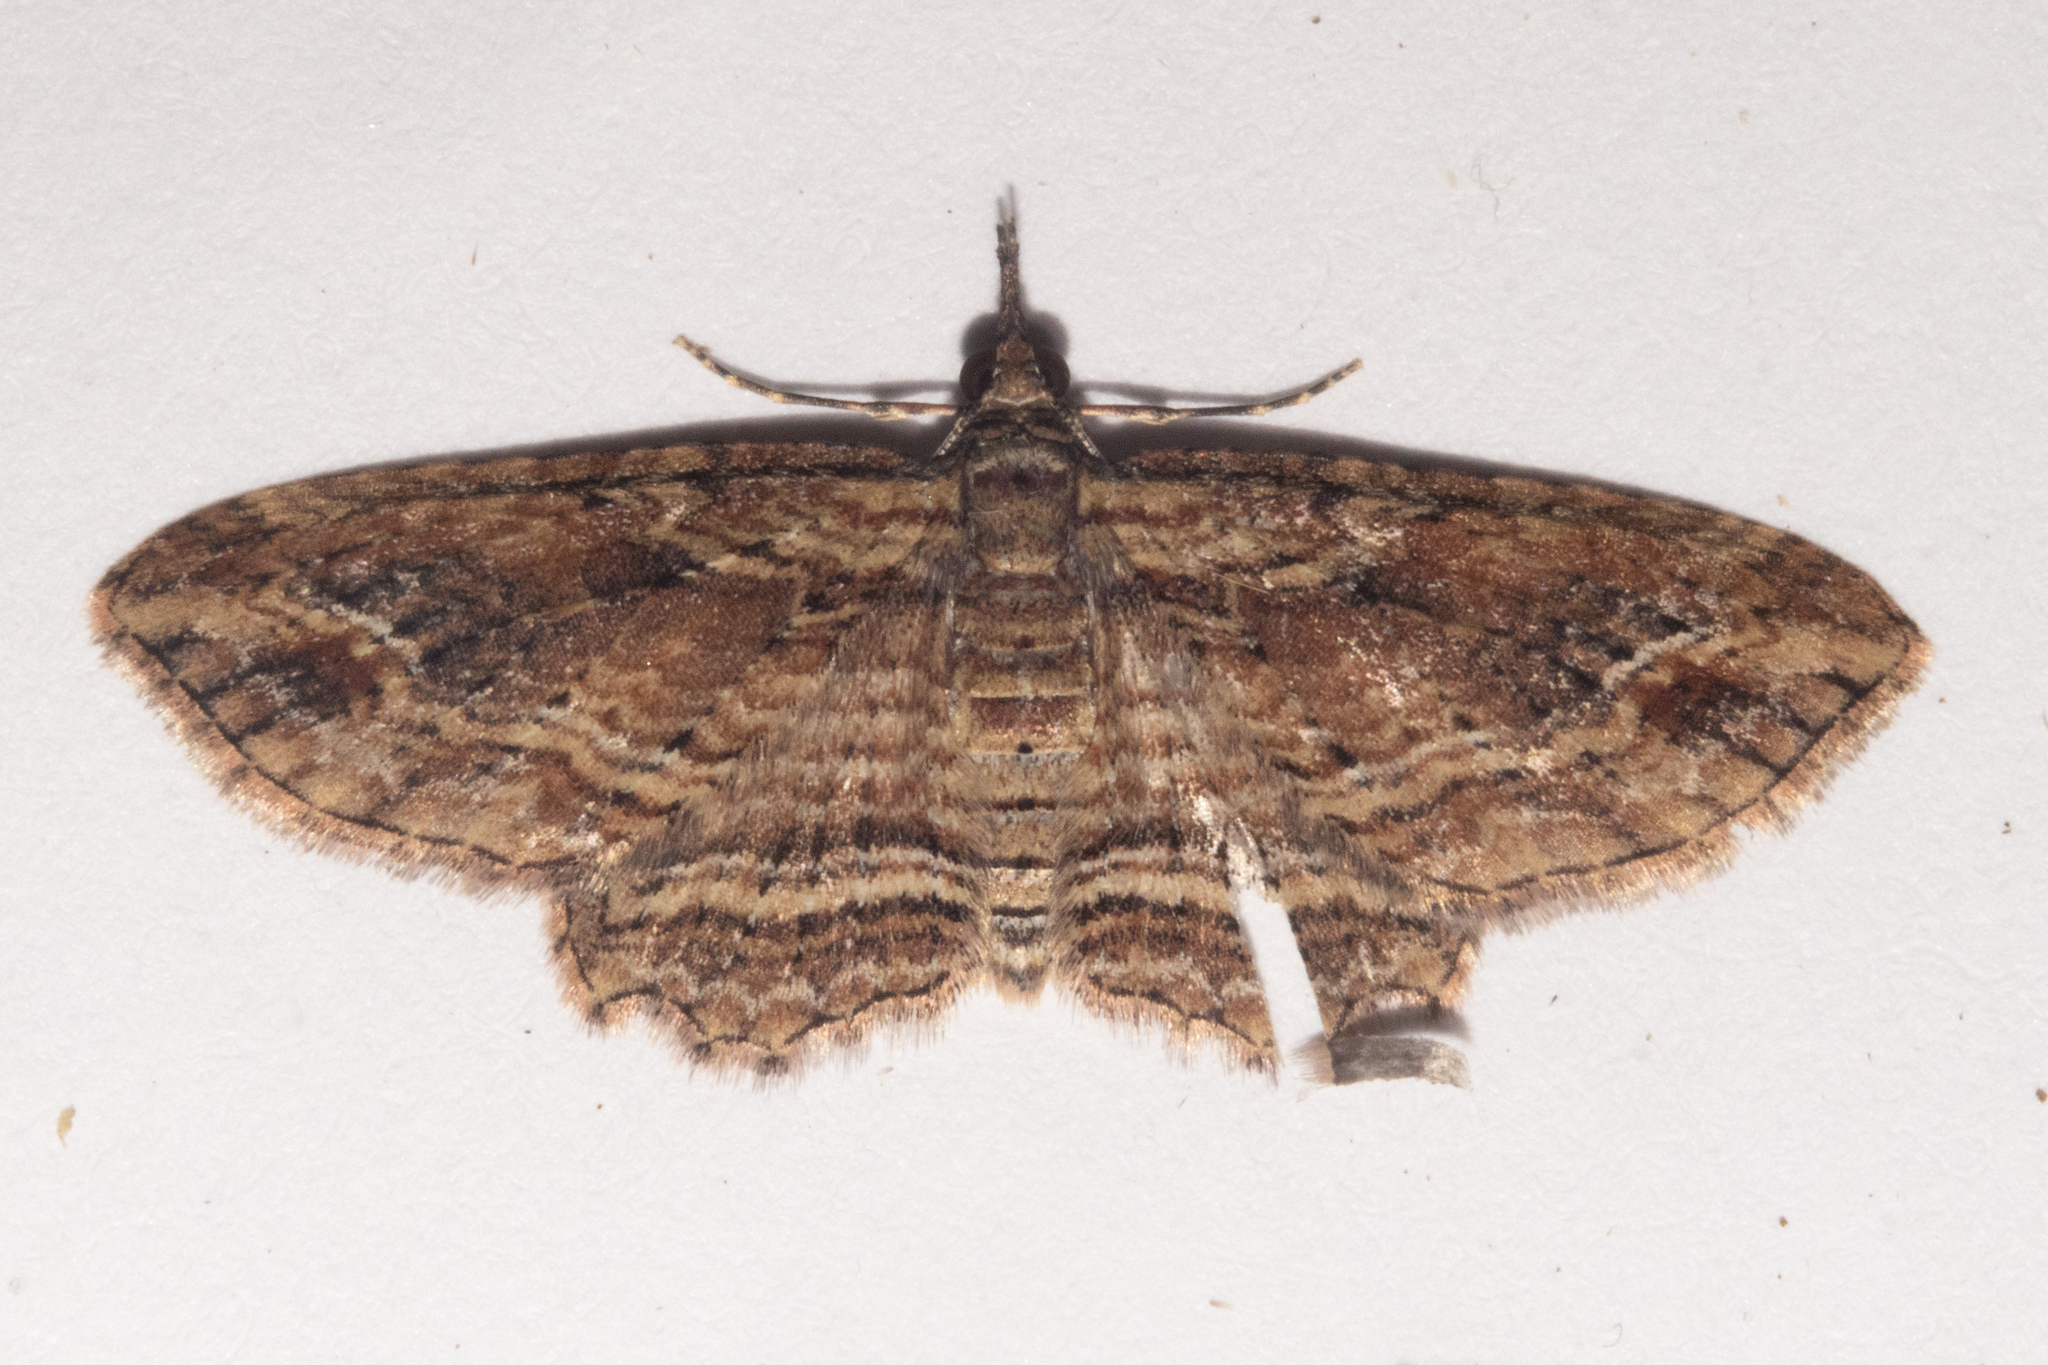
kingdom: Animalia
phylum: Arthropoda
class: Insecta
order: Lepidoptera
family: Geometridae
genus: Chloroclystis
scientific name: Chloroclystis filata
